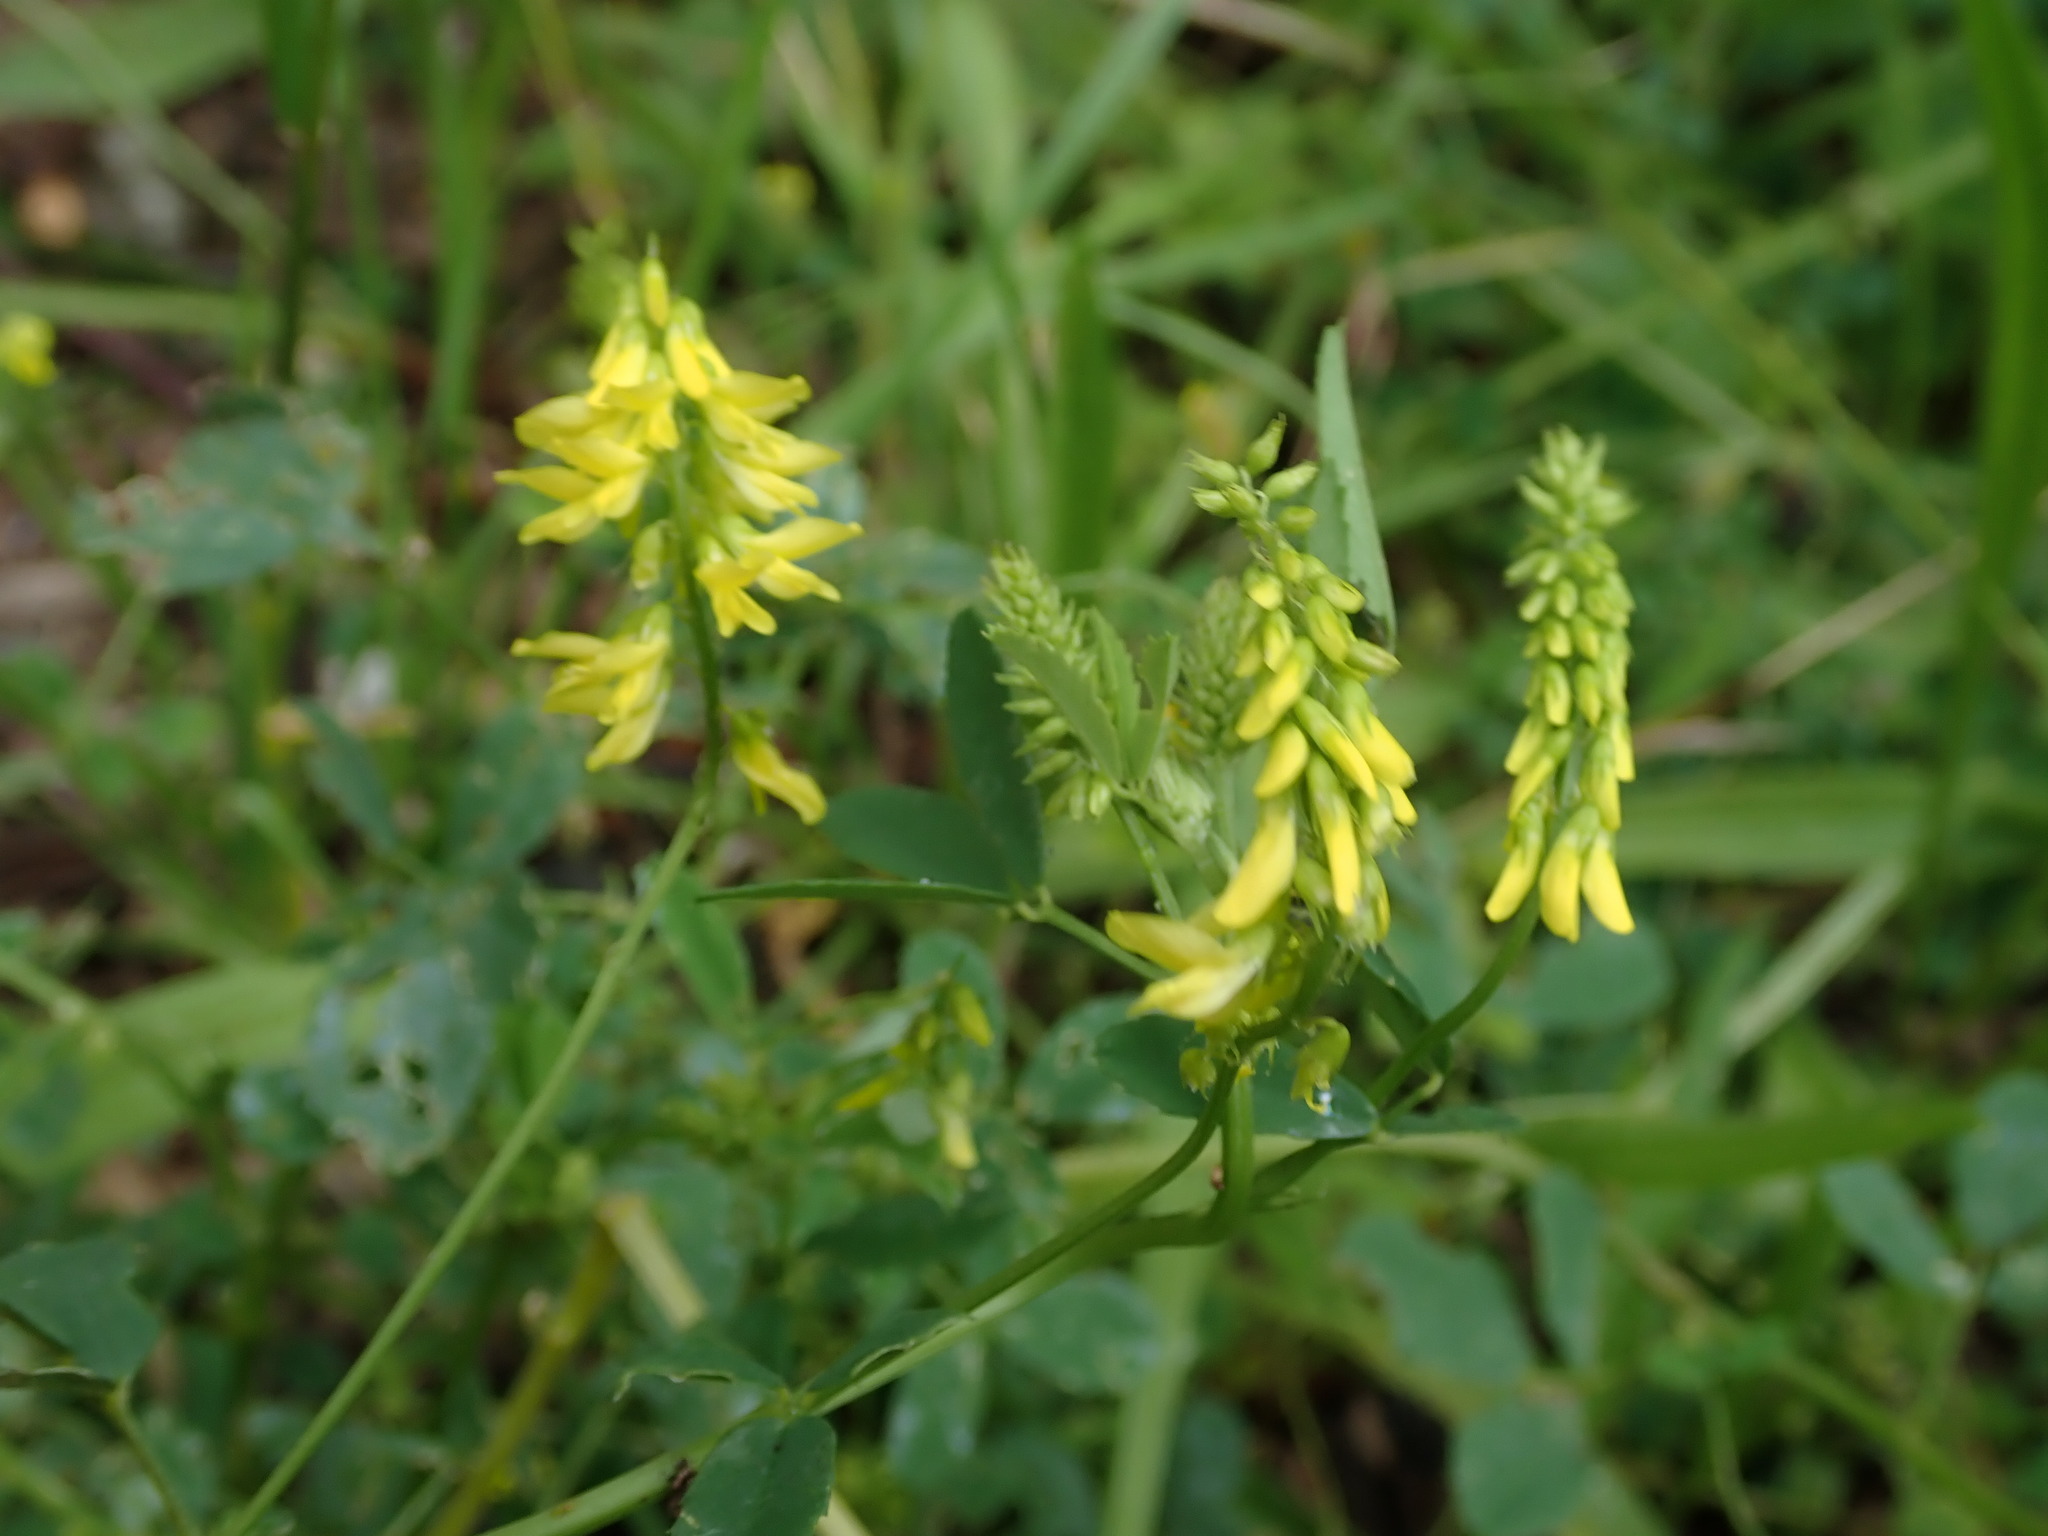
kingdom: Plantae
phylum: Tracheophyta
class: Magnoliopsida
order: Fabales
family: Fabaceae
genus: Melilotus
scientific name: Melilotus officinalis
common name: Sweetclover
